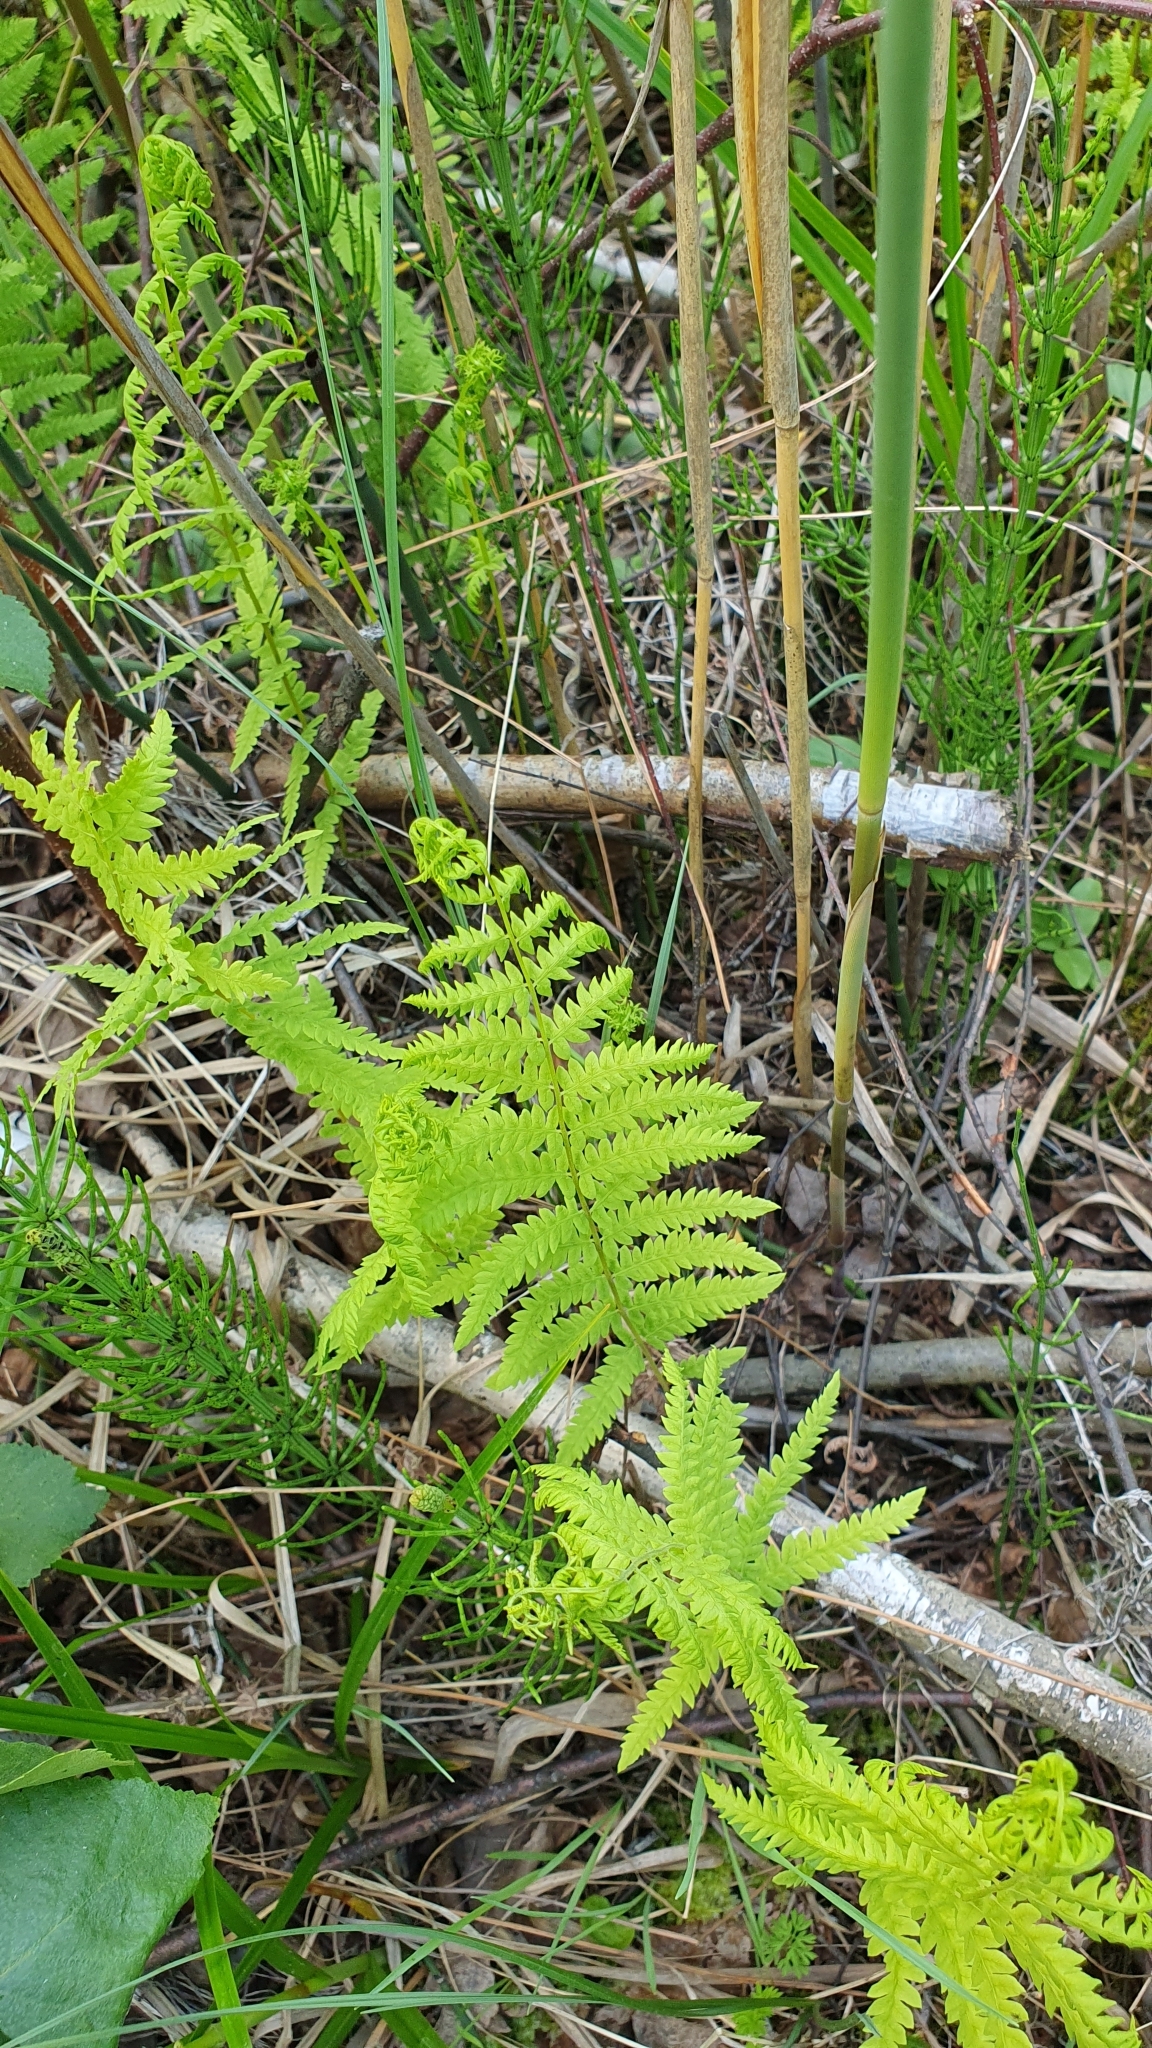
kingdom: Plantae
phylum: Tracheophyta
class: Polypodiopsida
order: Polypodiales
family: Thelypteridaceae
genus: Thelypteris
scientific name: Thelypteris palustris
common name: Marsh fern
